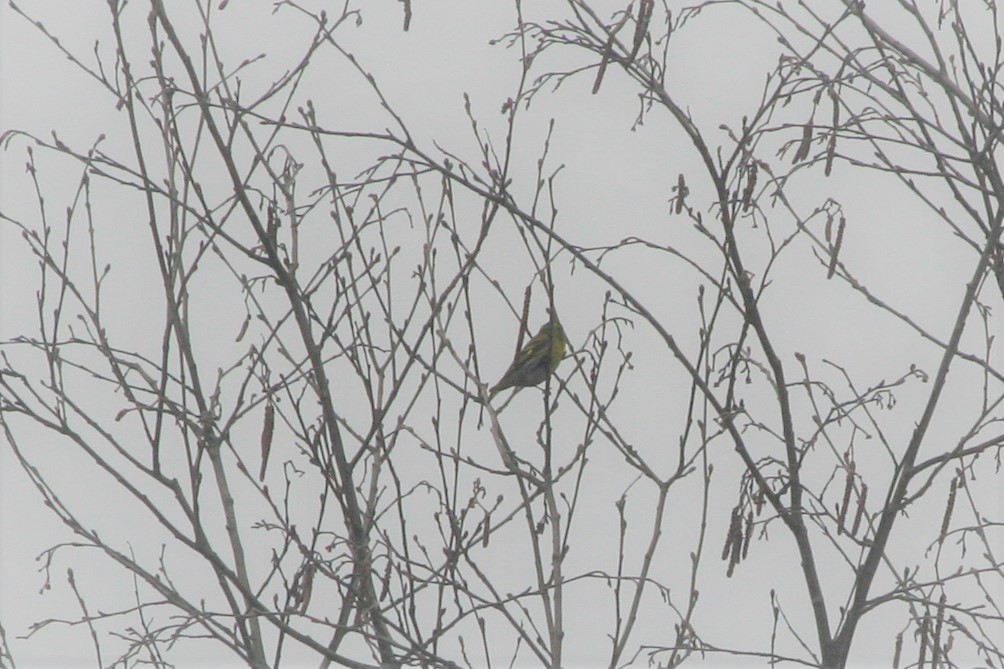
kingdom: Animalia
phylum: Chordata
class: Aves
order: Passeriformes
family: Fringillidae
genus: Spinus
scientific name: Spinus spinus
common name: Eurasian siskin
